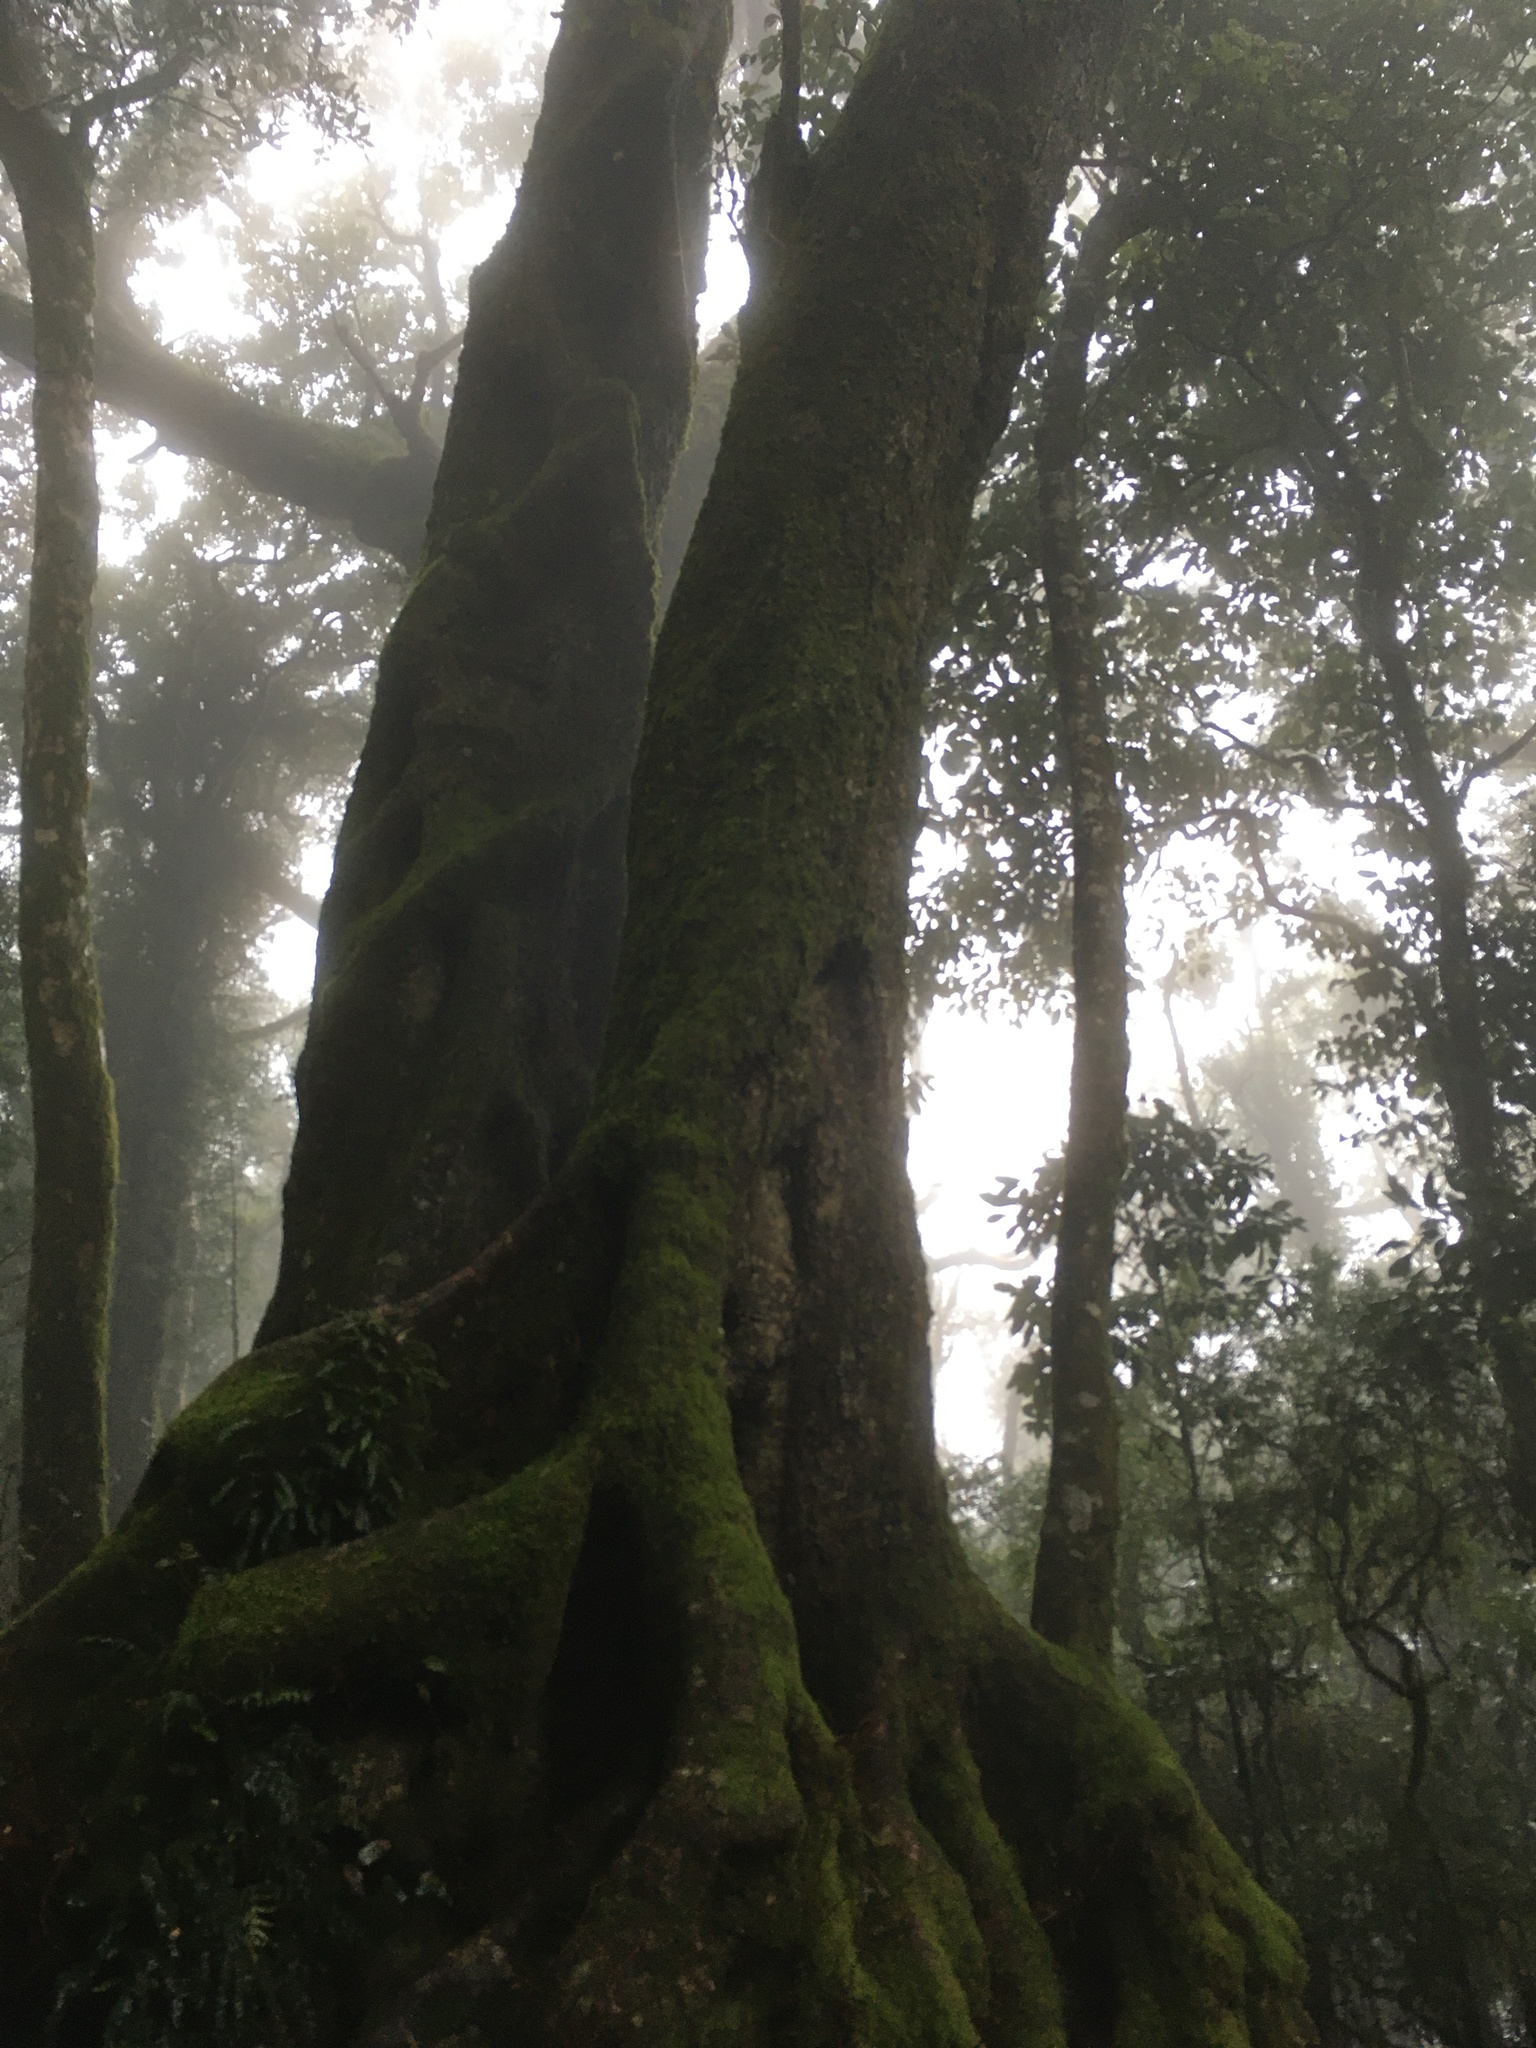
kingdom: Plantae
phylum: Tracheophyta
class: Magnoliopsida
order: Fagales
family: Nothofagaceae
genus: Nothofagus
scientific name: Nothofagus moorei
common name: Antarctic beech
